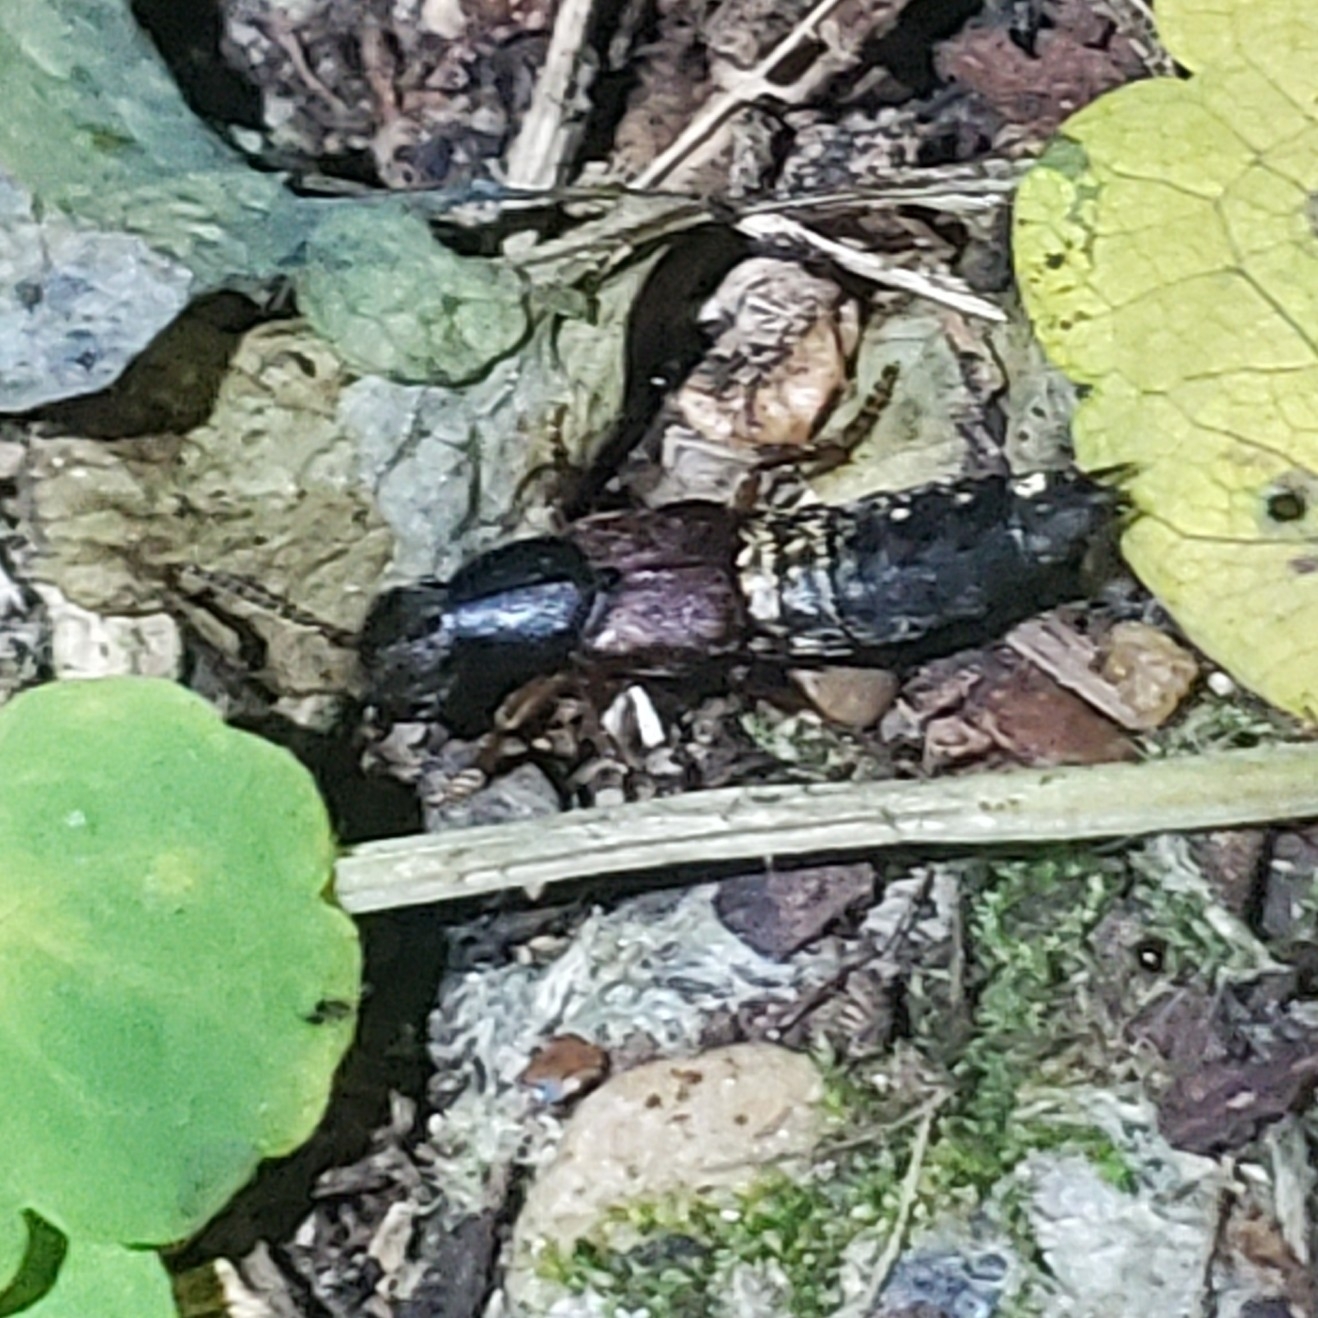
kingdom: Animalia
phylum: Arthropoda
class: Insecta
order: Coleoptera
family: Staphylinidae
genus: Dinothenarus
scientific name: Dinothenarus pleuralis
